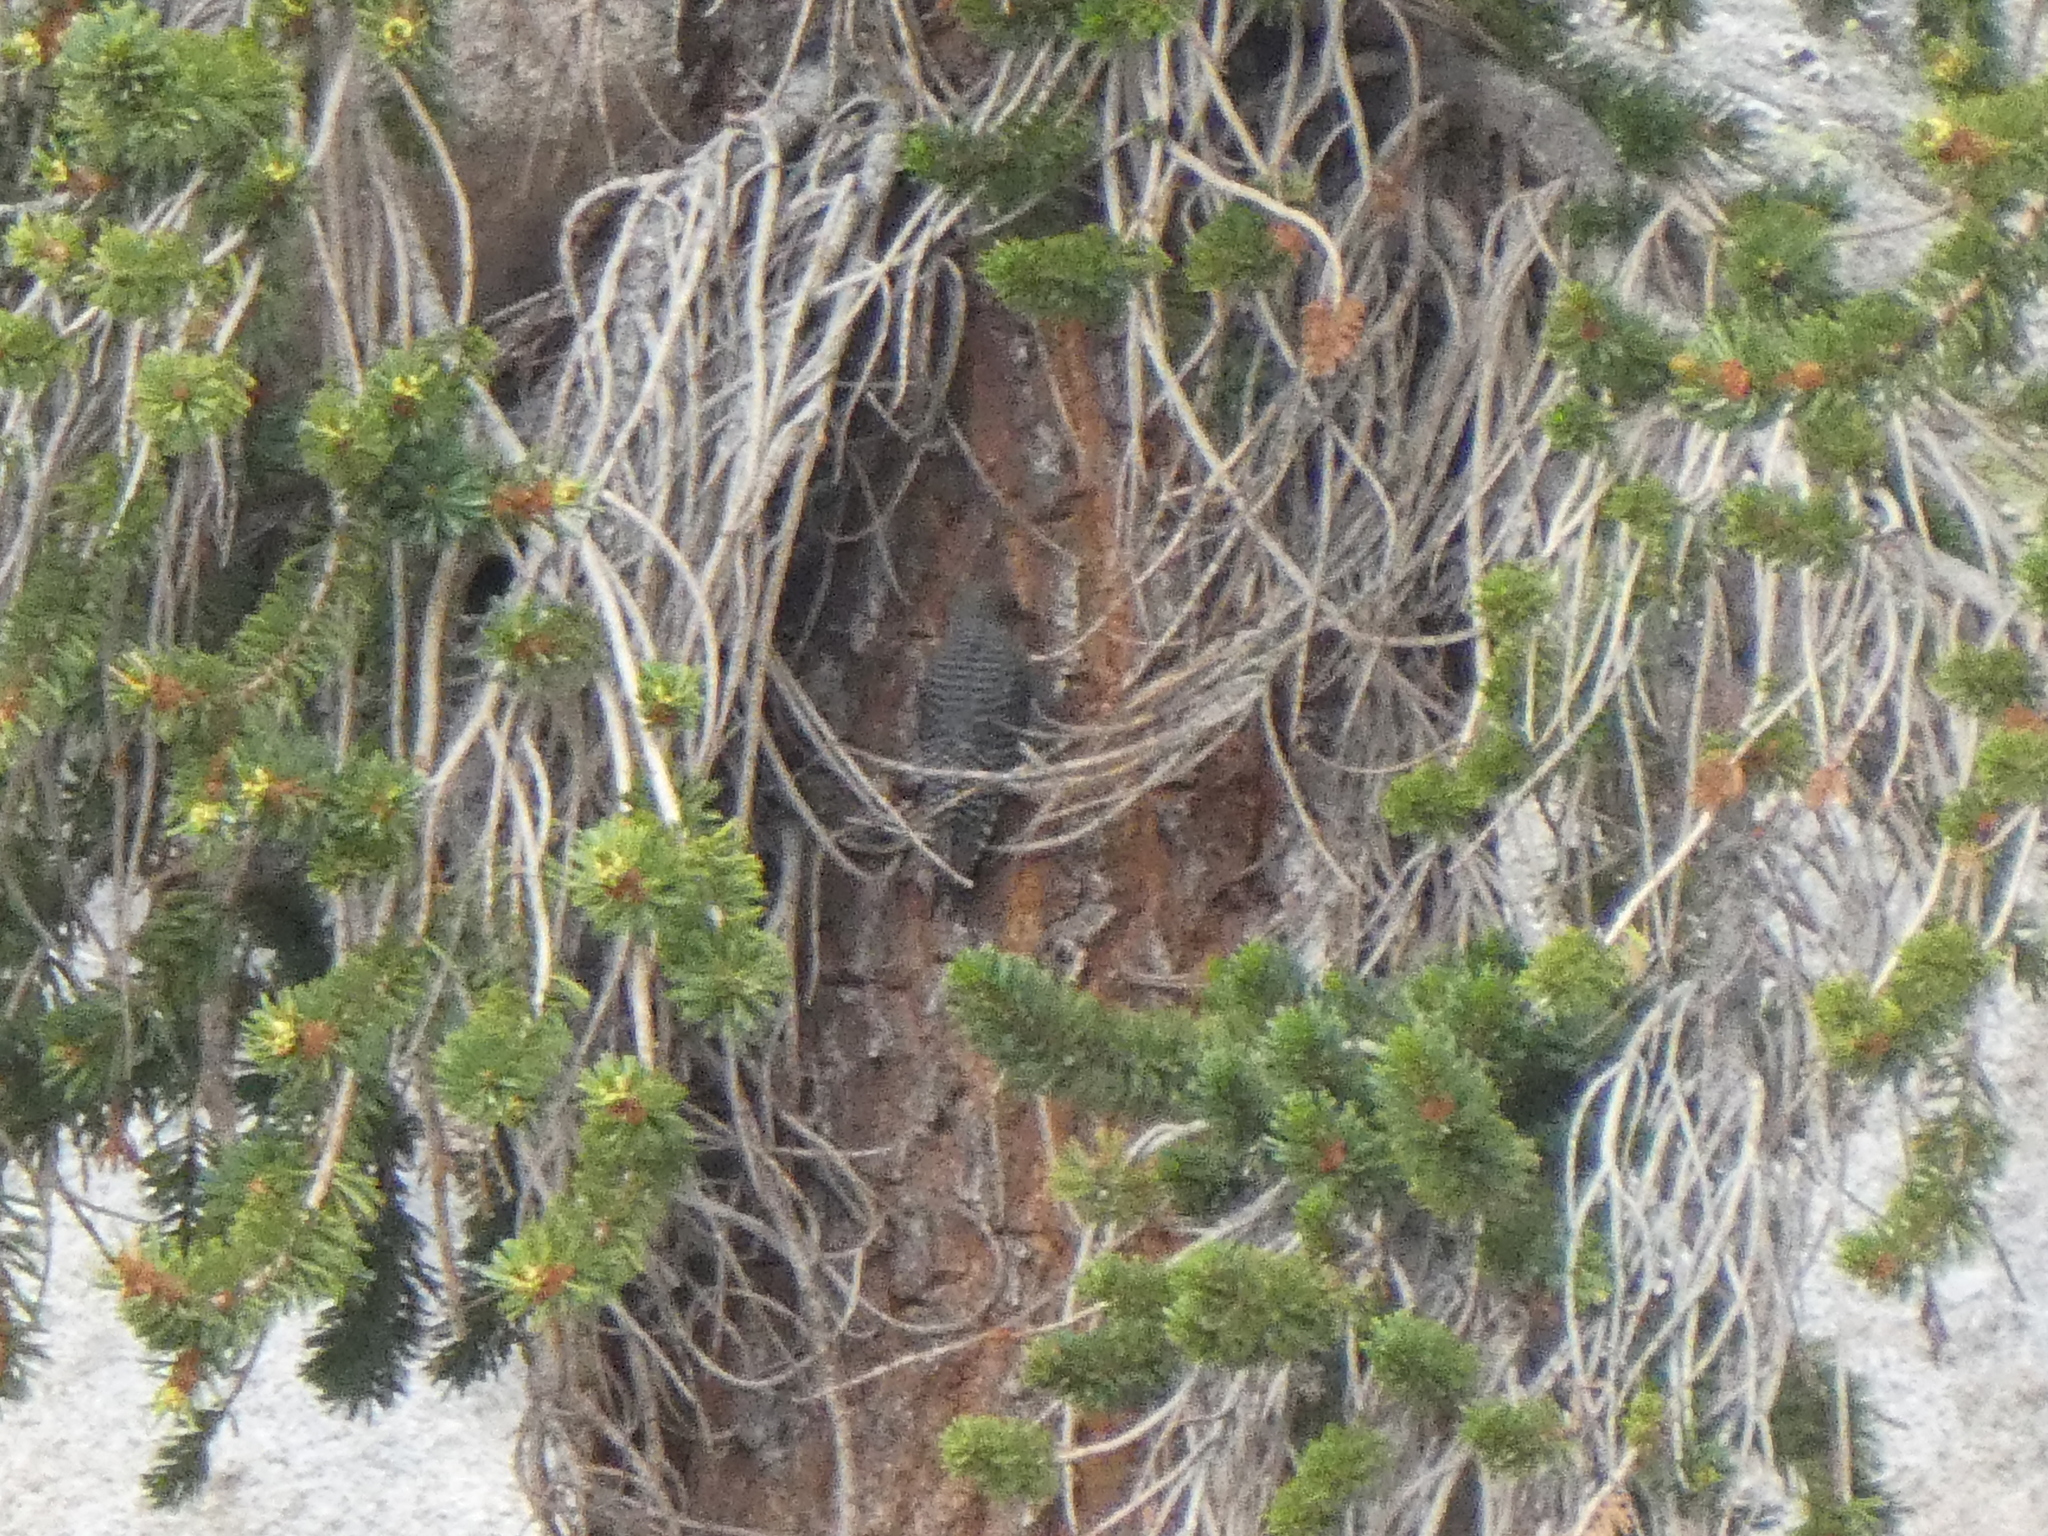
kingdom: Animalia
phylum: Chordata
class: Aves
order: Piciformes
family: Picidae
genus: Sphyrapicus
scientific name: Sphyrapicus thyroideus
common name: Williamson's sapsucker
